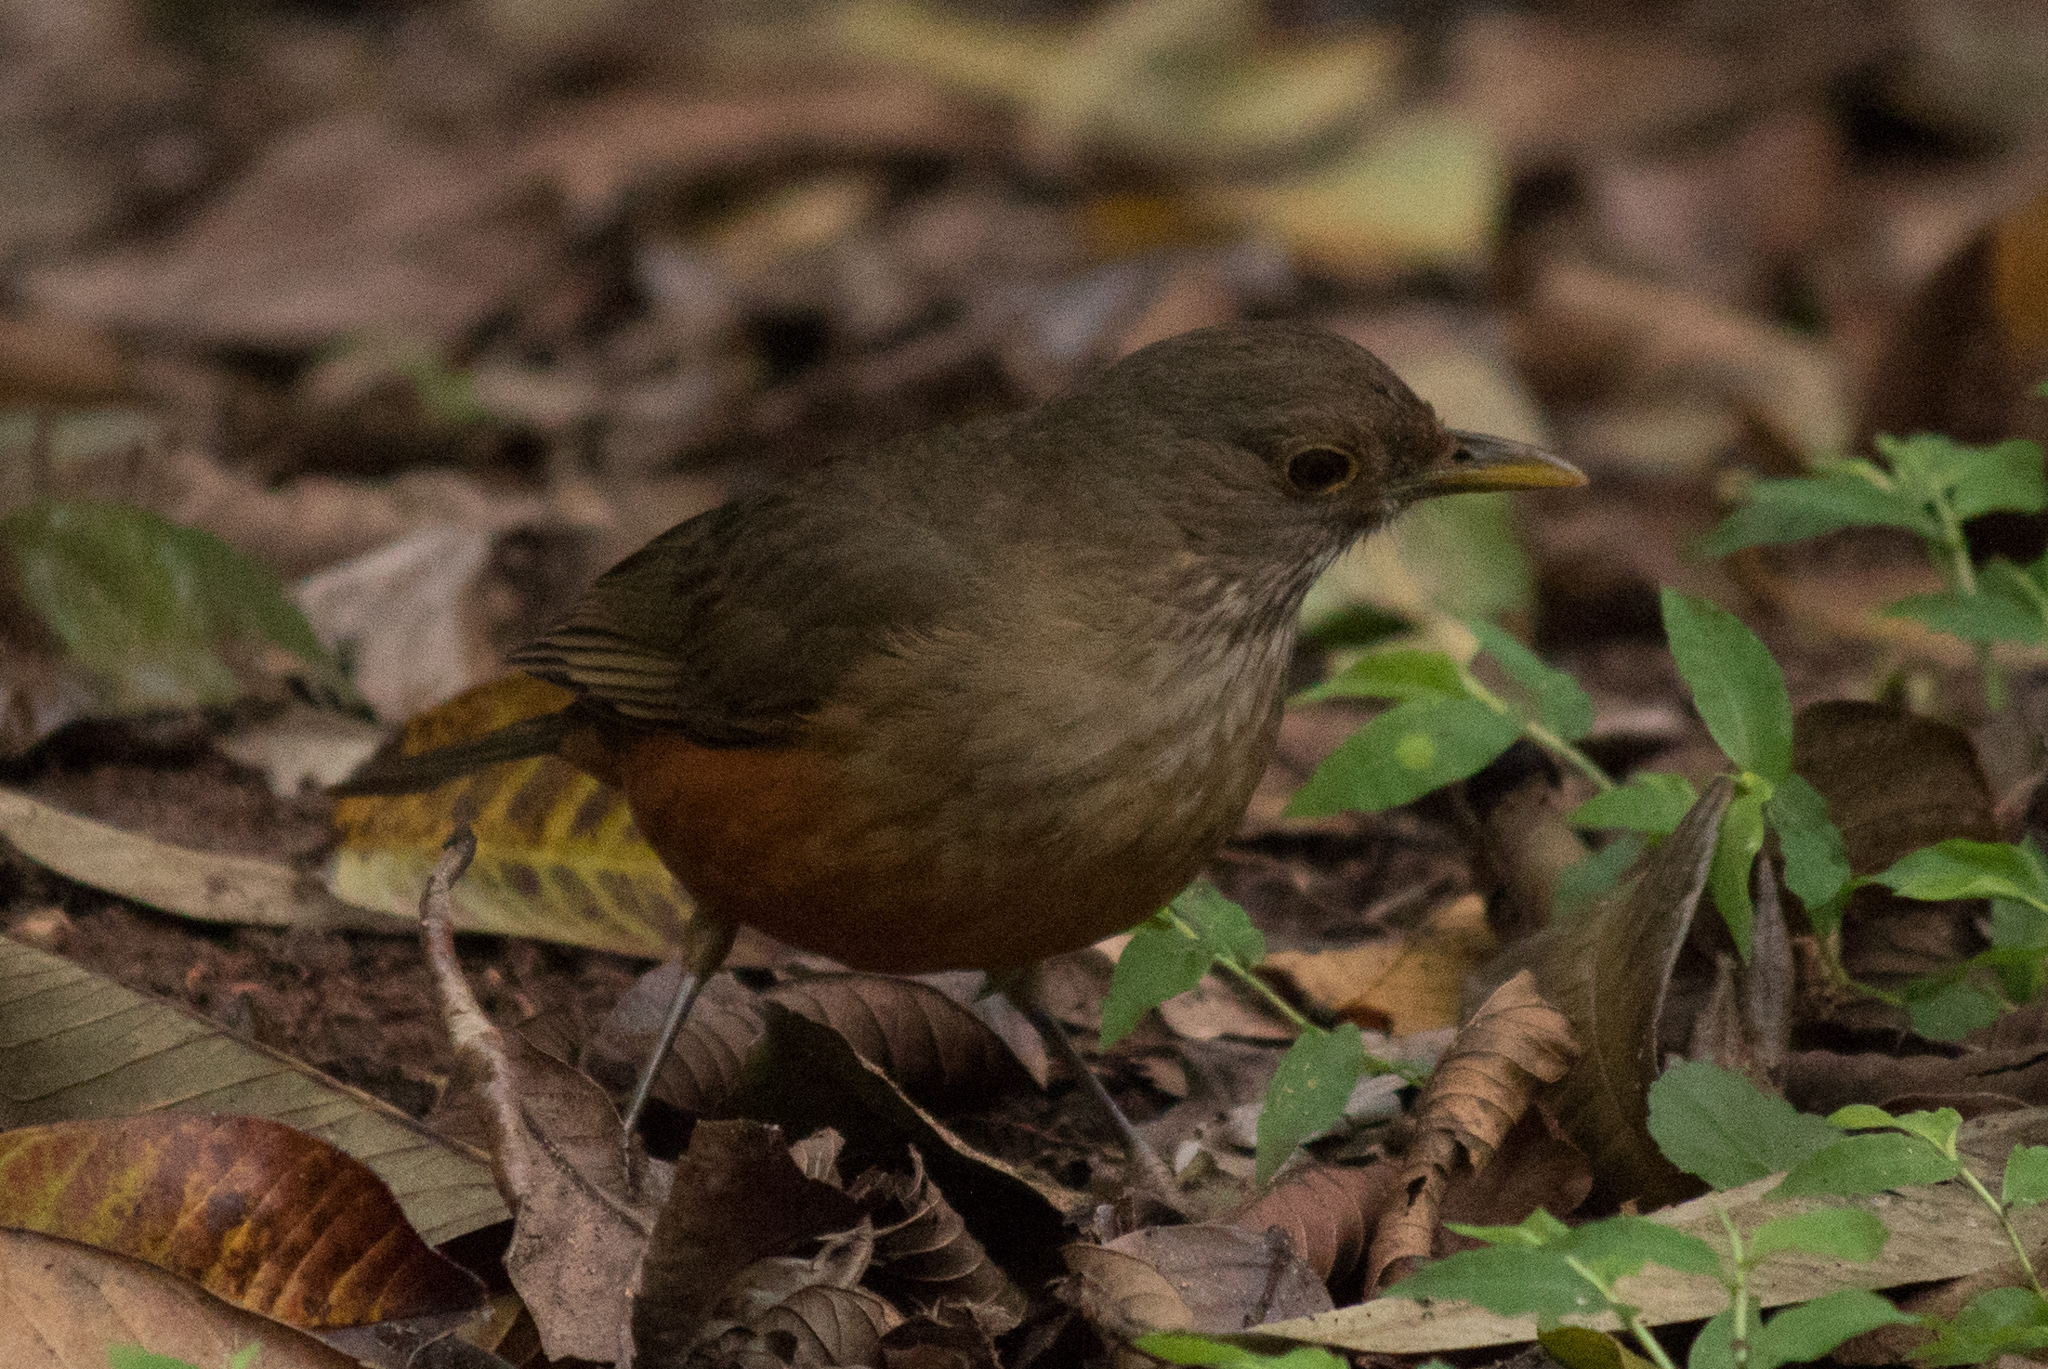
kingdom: Animalia
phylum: Chordata
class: Aves
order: Passeriformes
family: Turdidae
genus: Turdus
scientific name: Turdus rufiventris
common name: Rufous-bellied thrush
